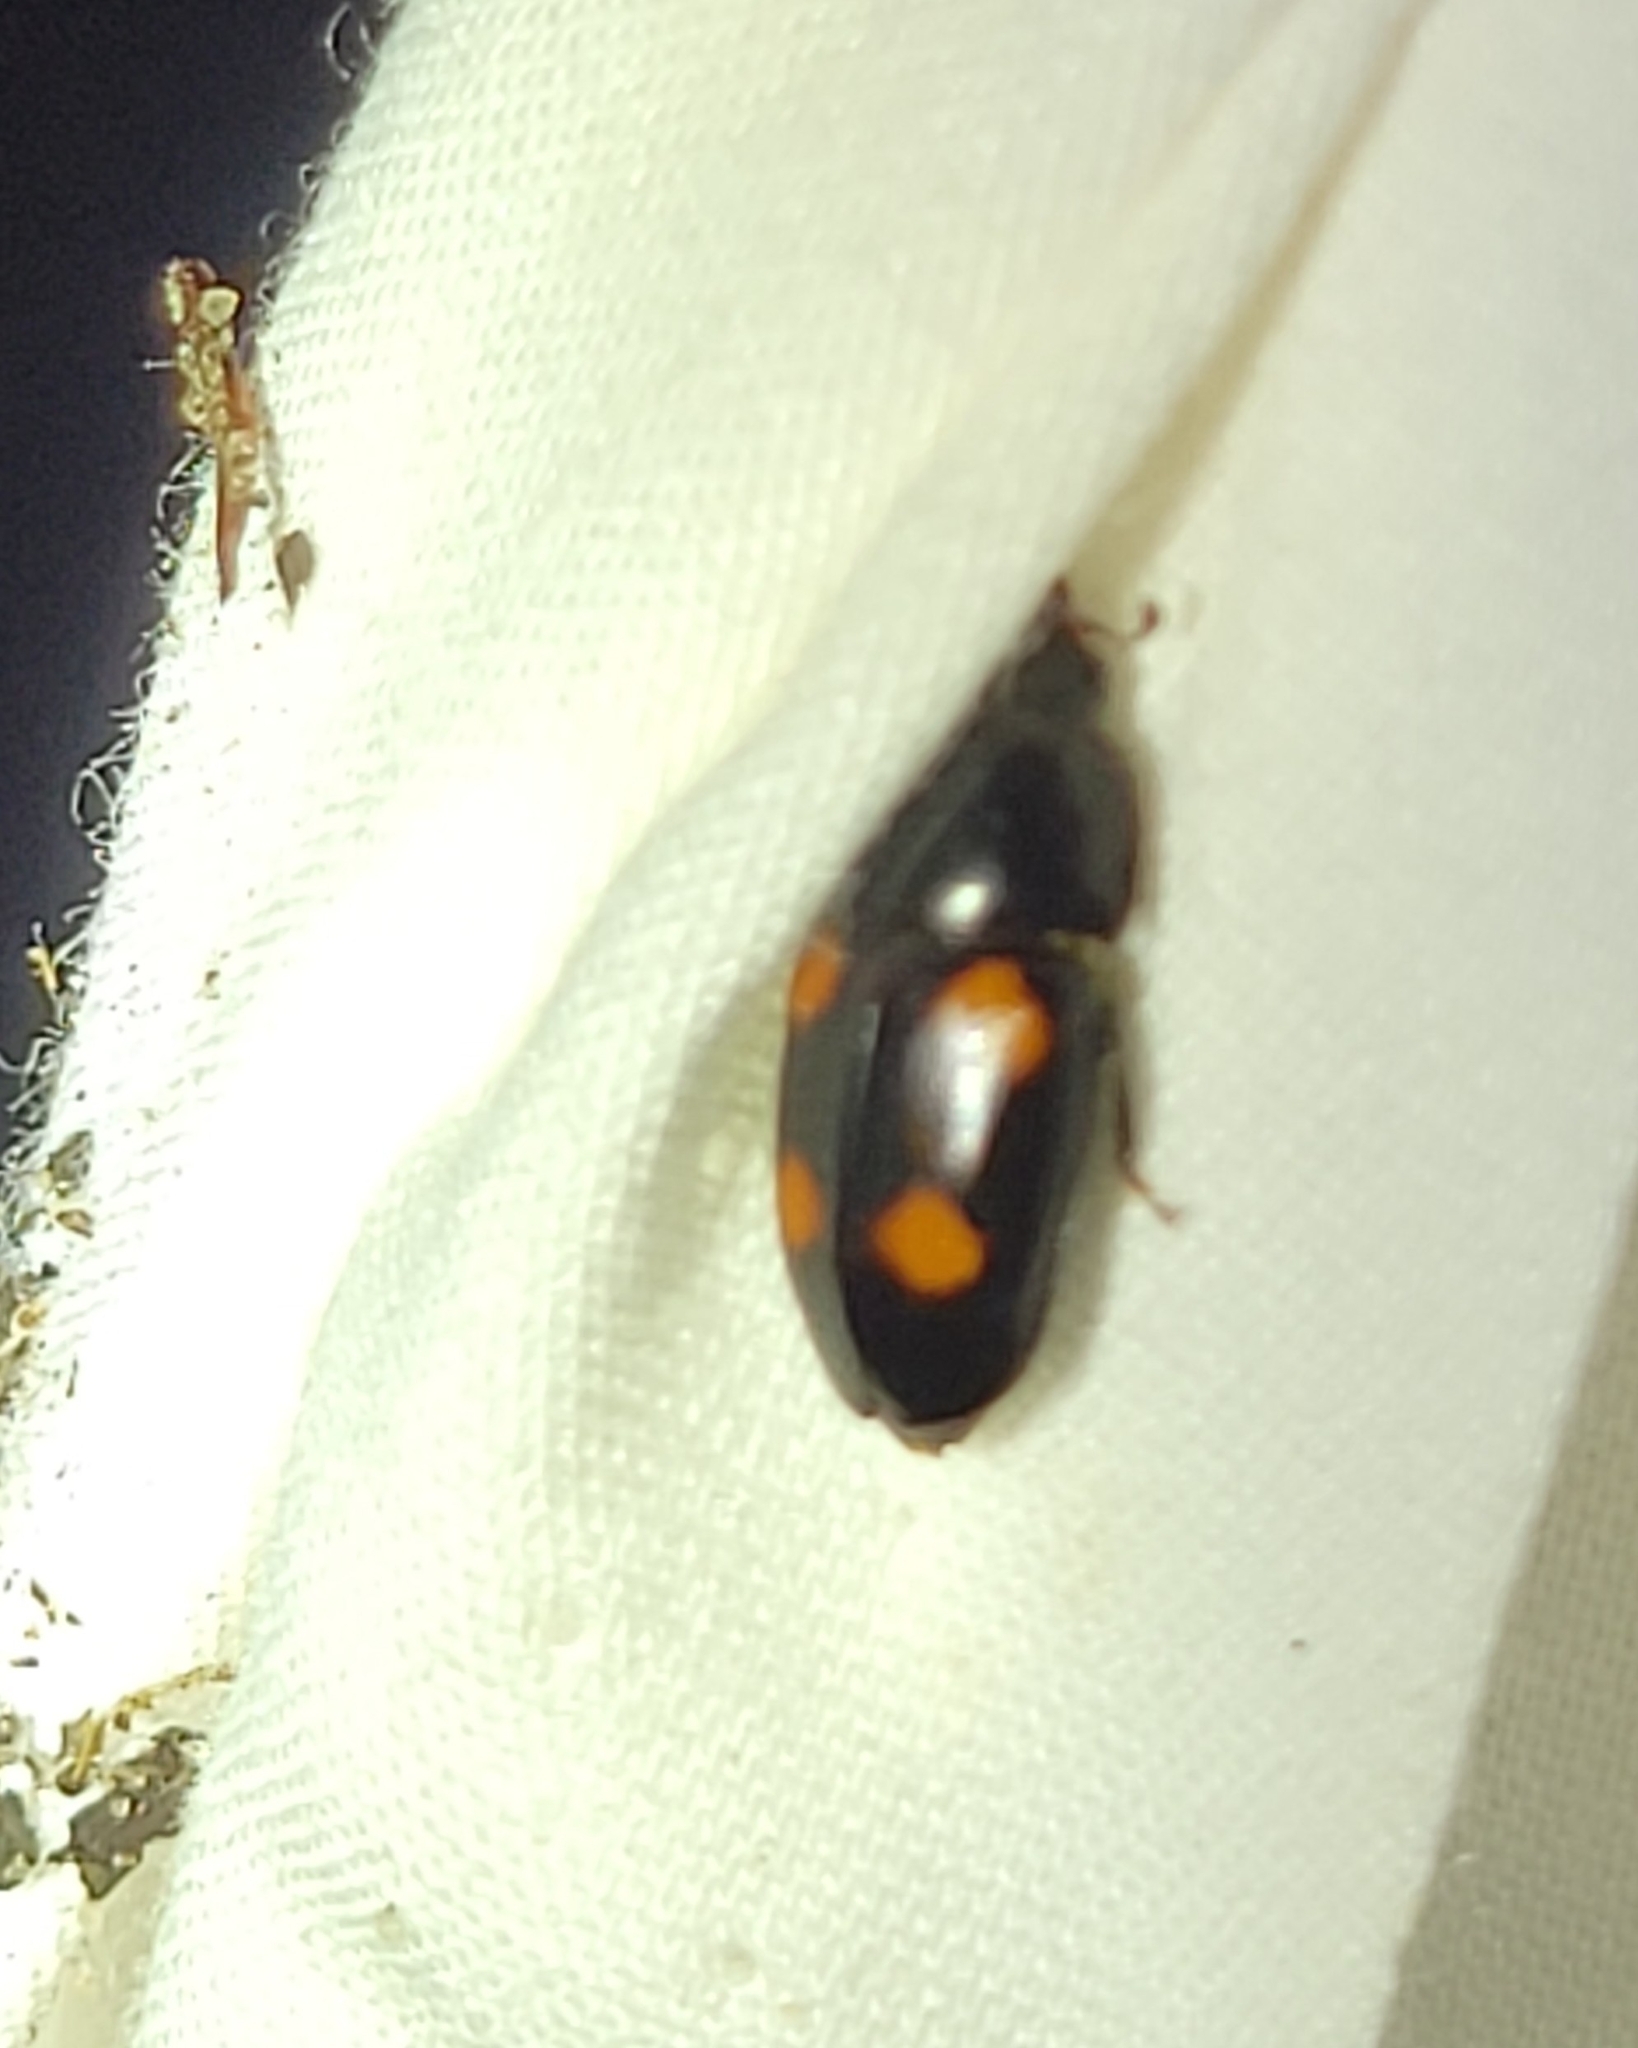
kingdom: Animalia
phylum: Arthropoda
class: Insecta
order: Coleoptera
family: Nitidulidae
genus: Glischrochilus
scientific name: Glischrochilus obtusus
